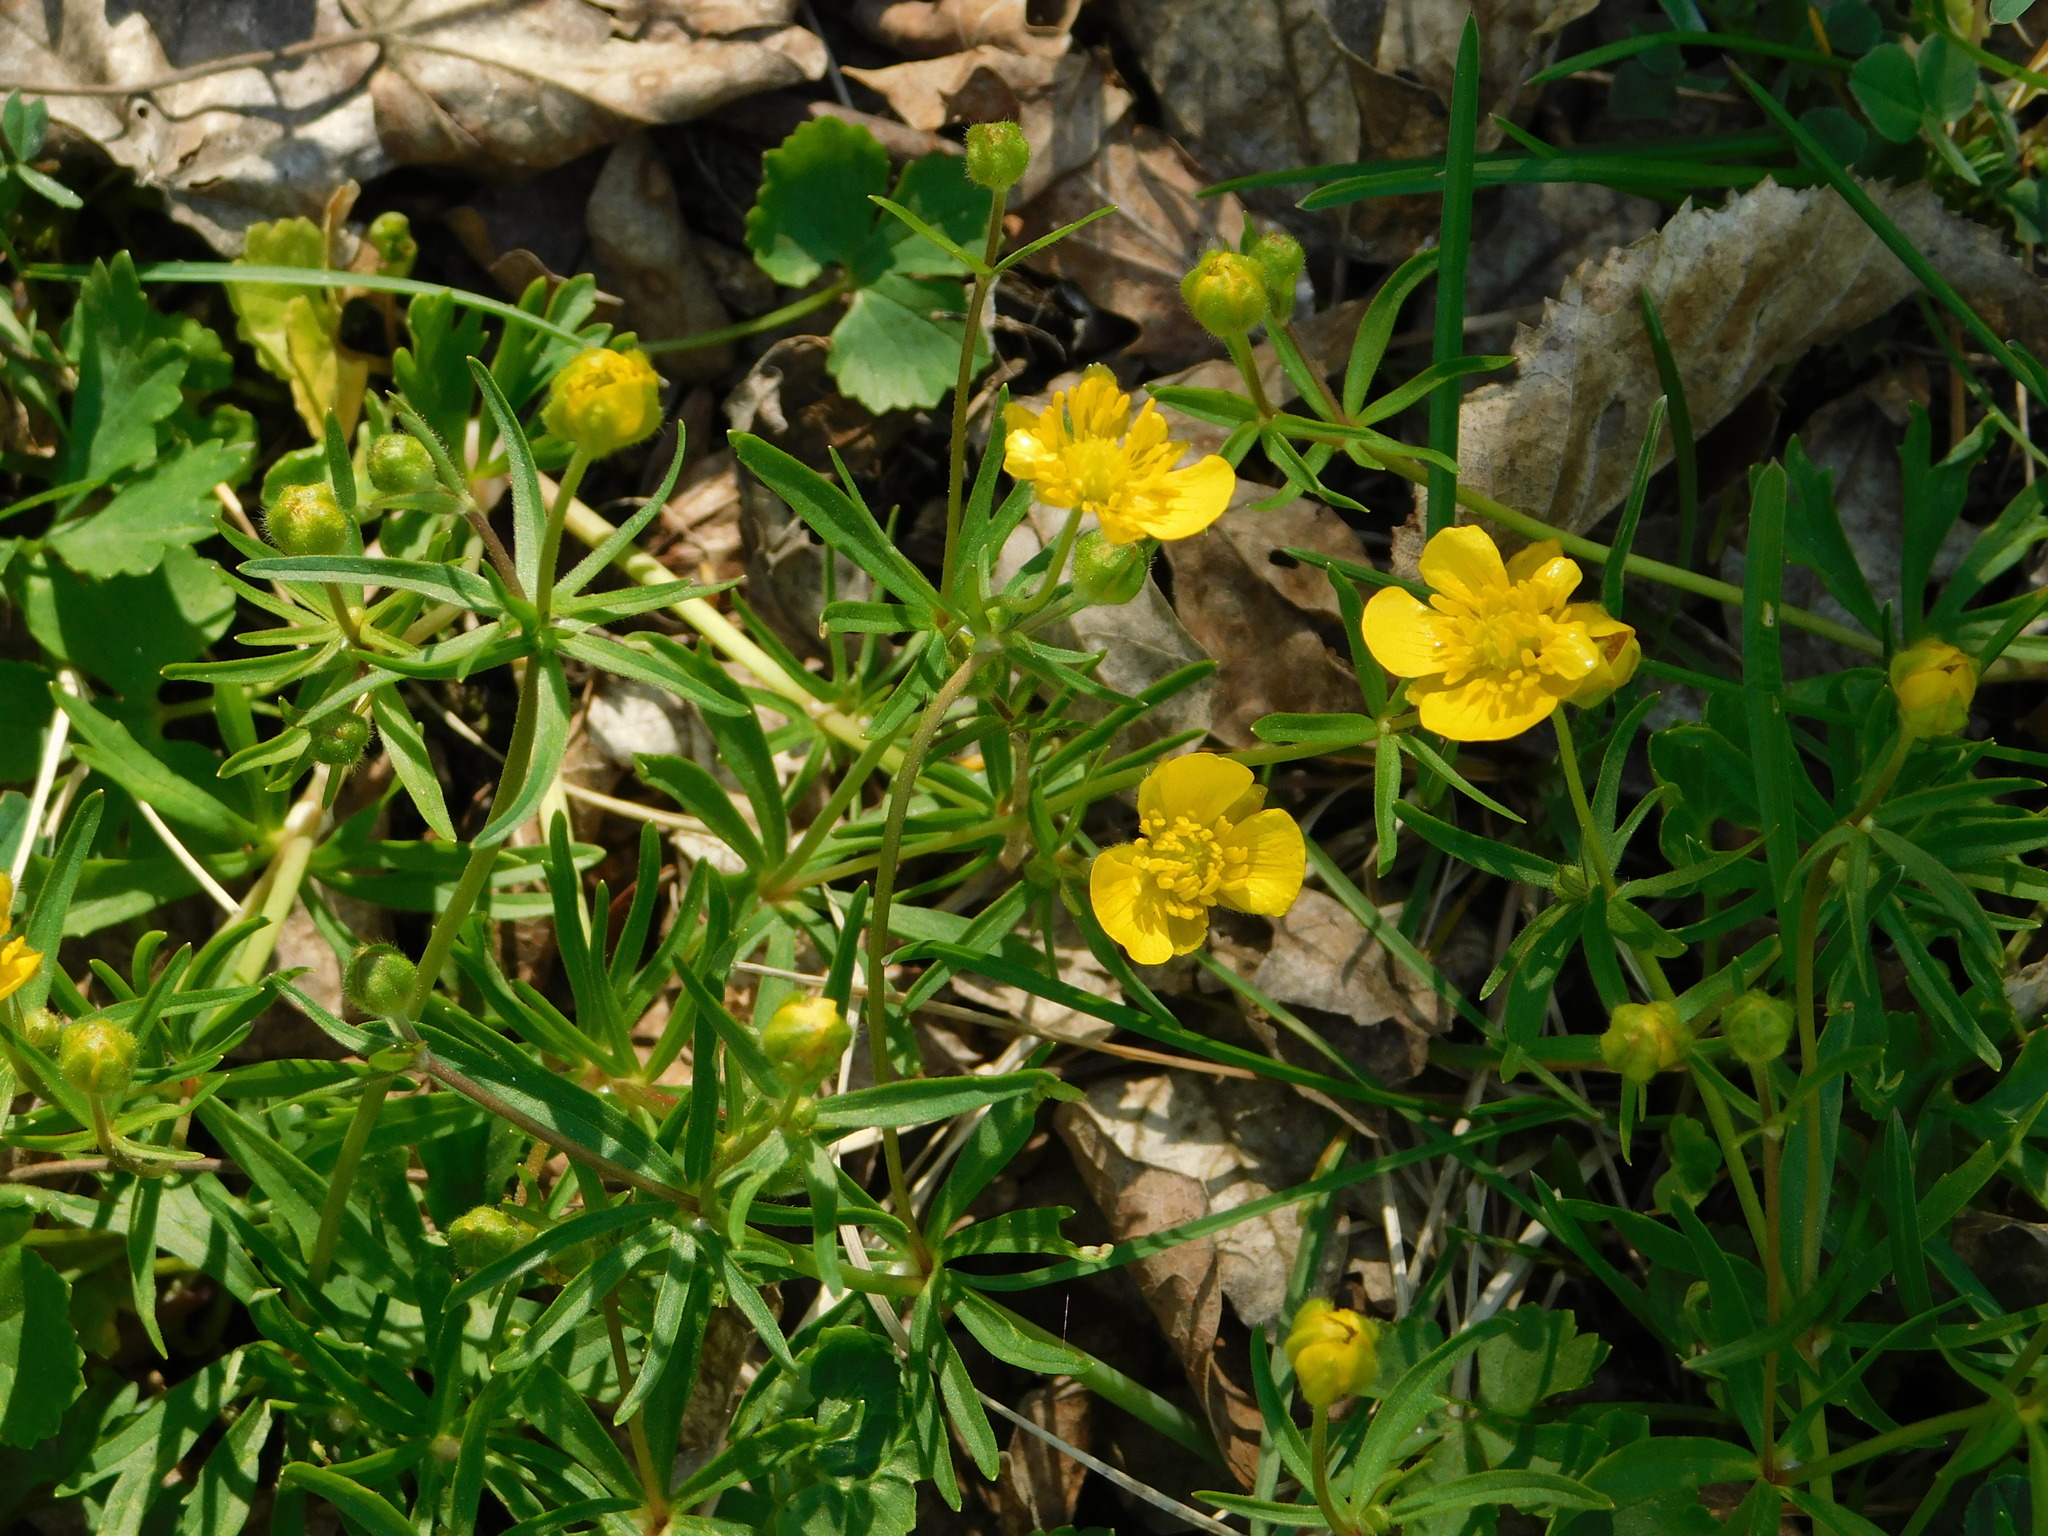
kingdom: Plantae
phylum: Tracheophyta
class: Magnoliopsida
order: Ranunculales
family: Ranunculaceae
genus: Ranunculus
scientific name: Ranunculus auricomus
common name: Goldilocks buttercup
